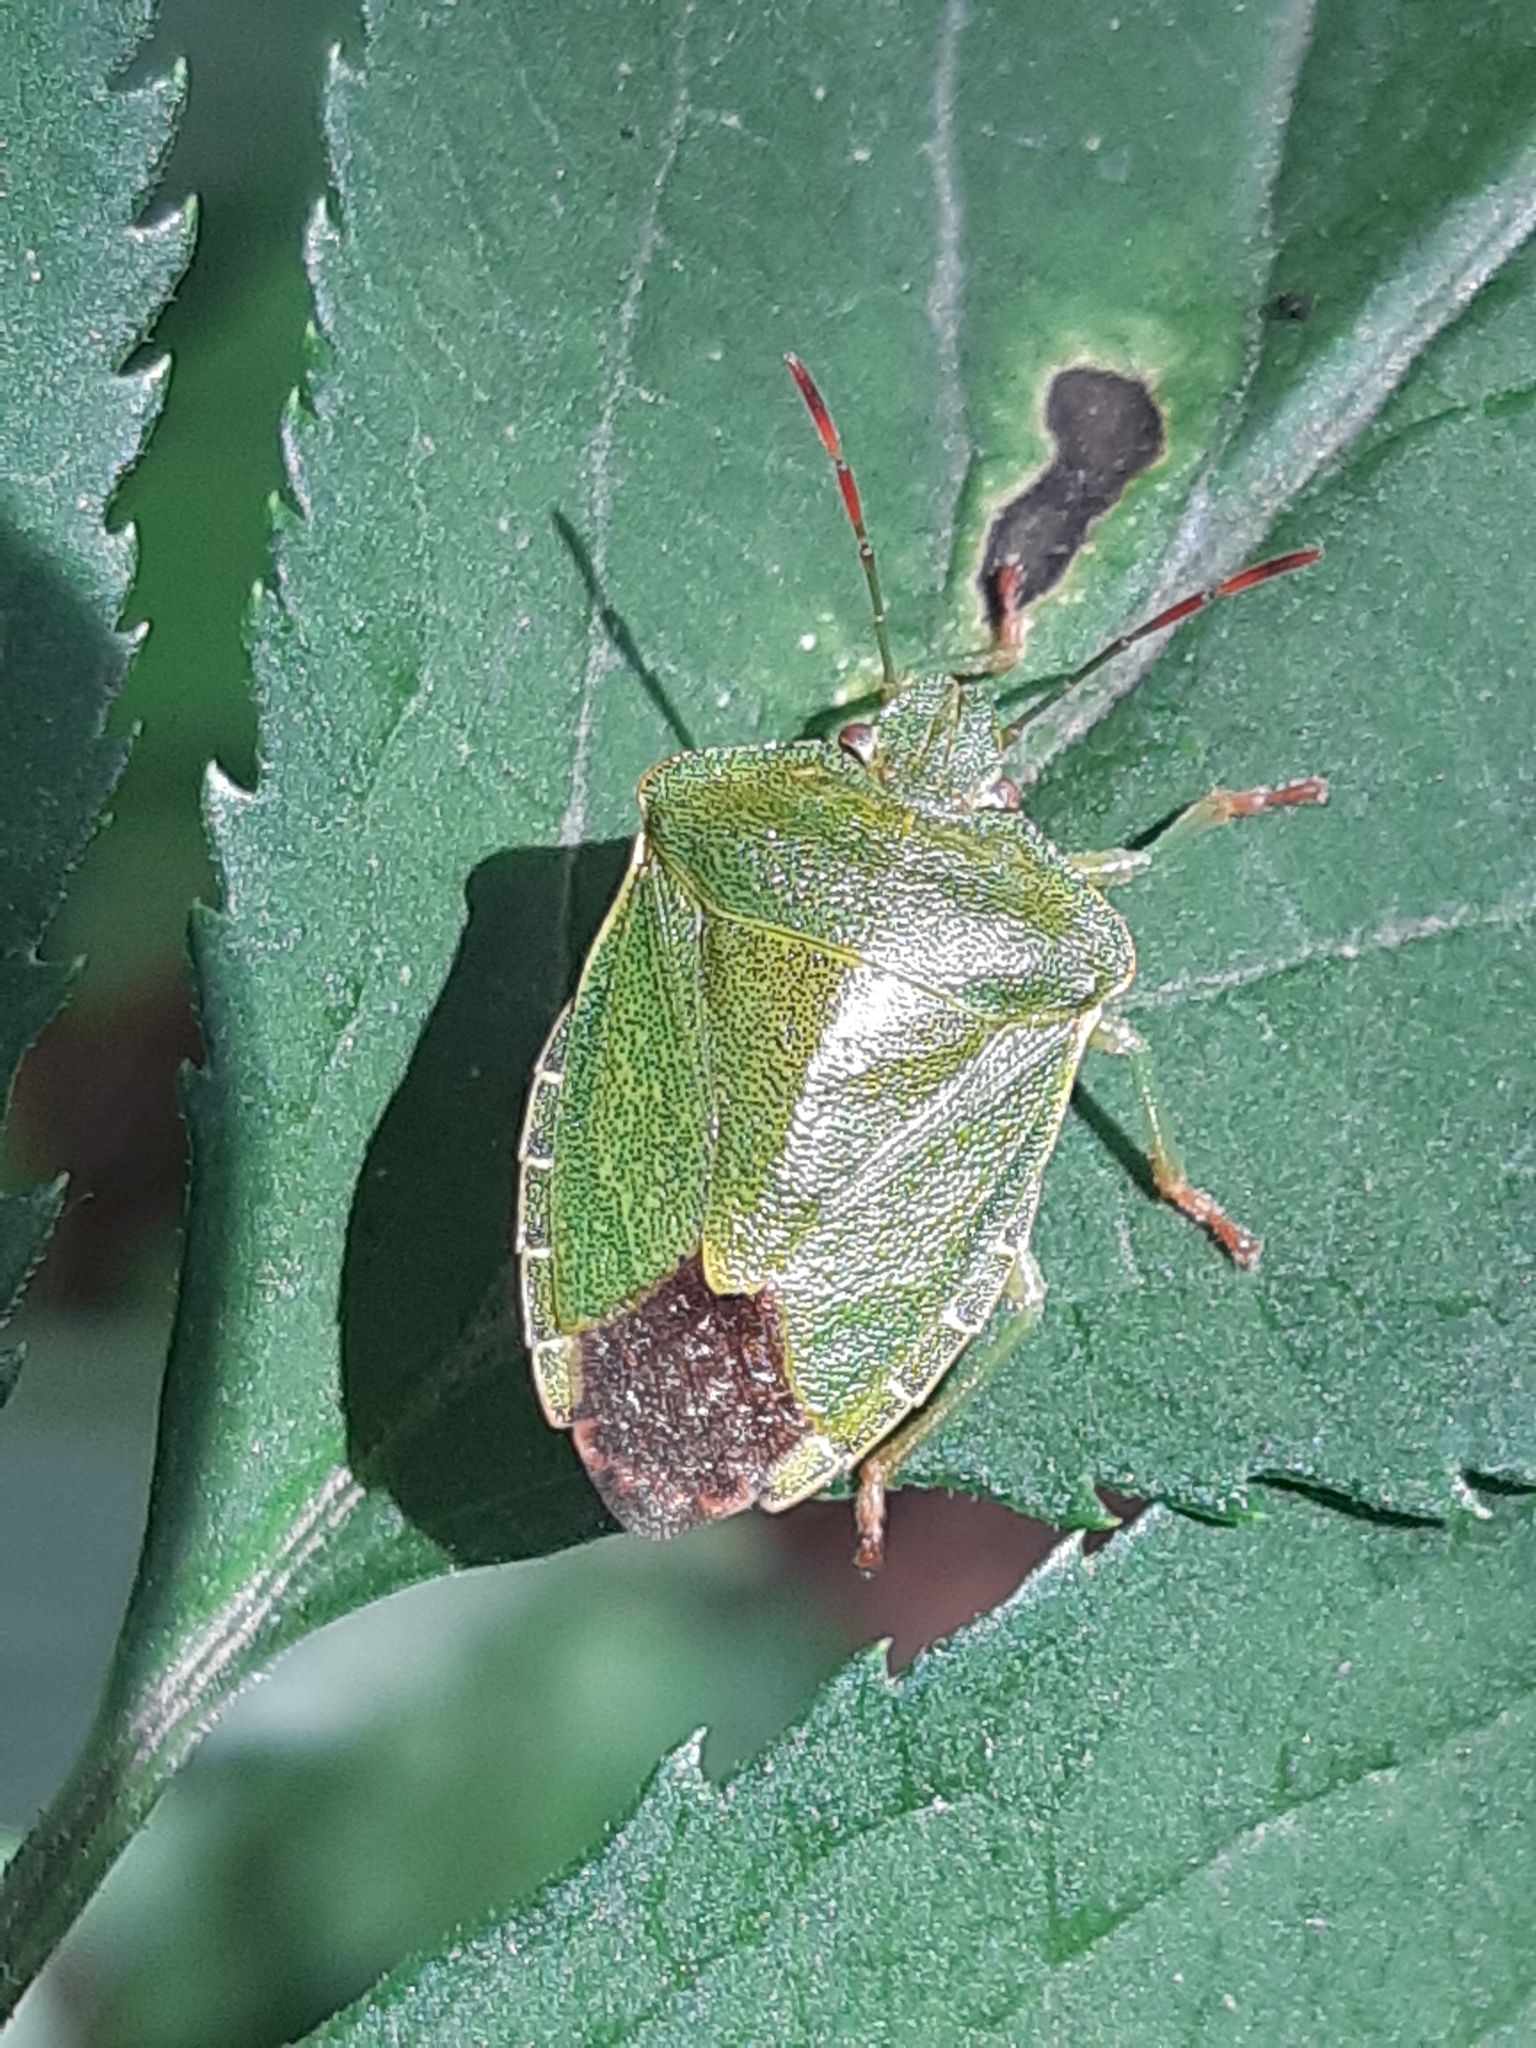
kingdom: Animalia
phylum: Arthropoda
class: Insecta
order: Hemiptera
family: Pentatomidae
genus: Palomena
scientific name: Palomena prasina
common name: Green shieldbug
